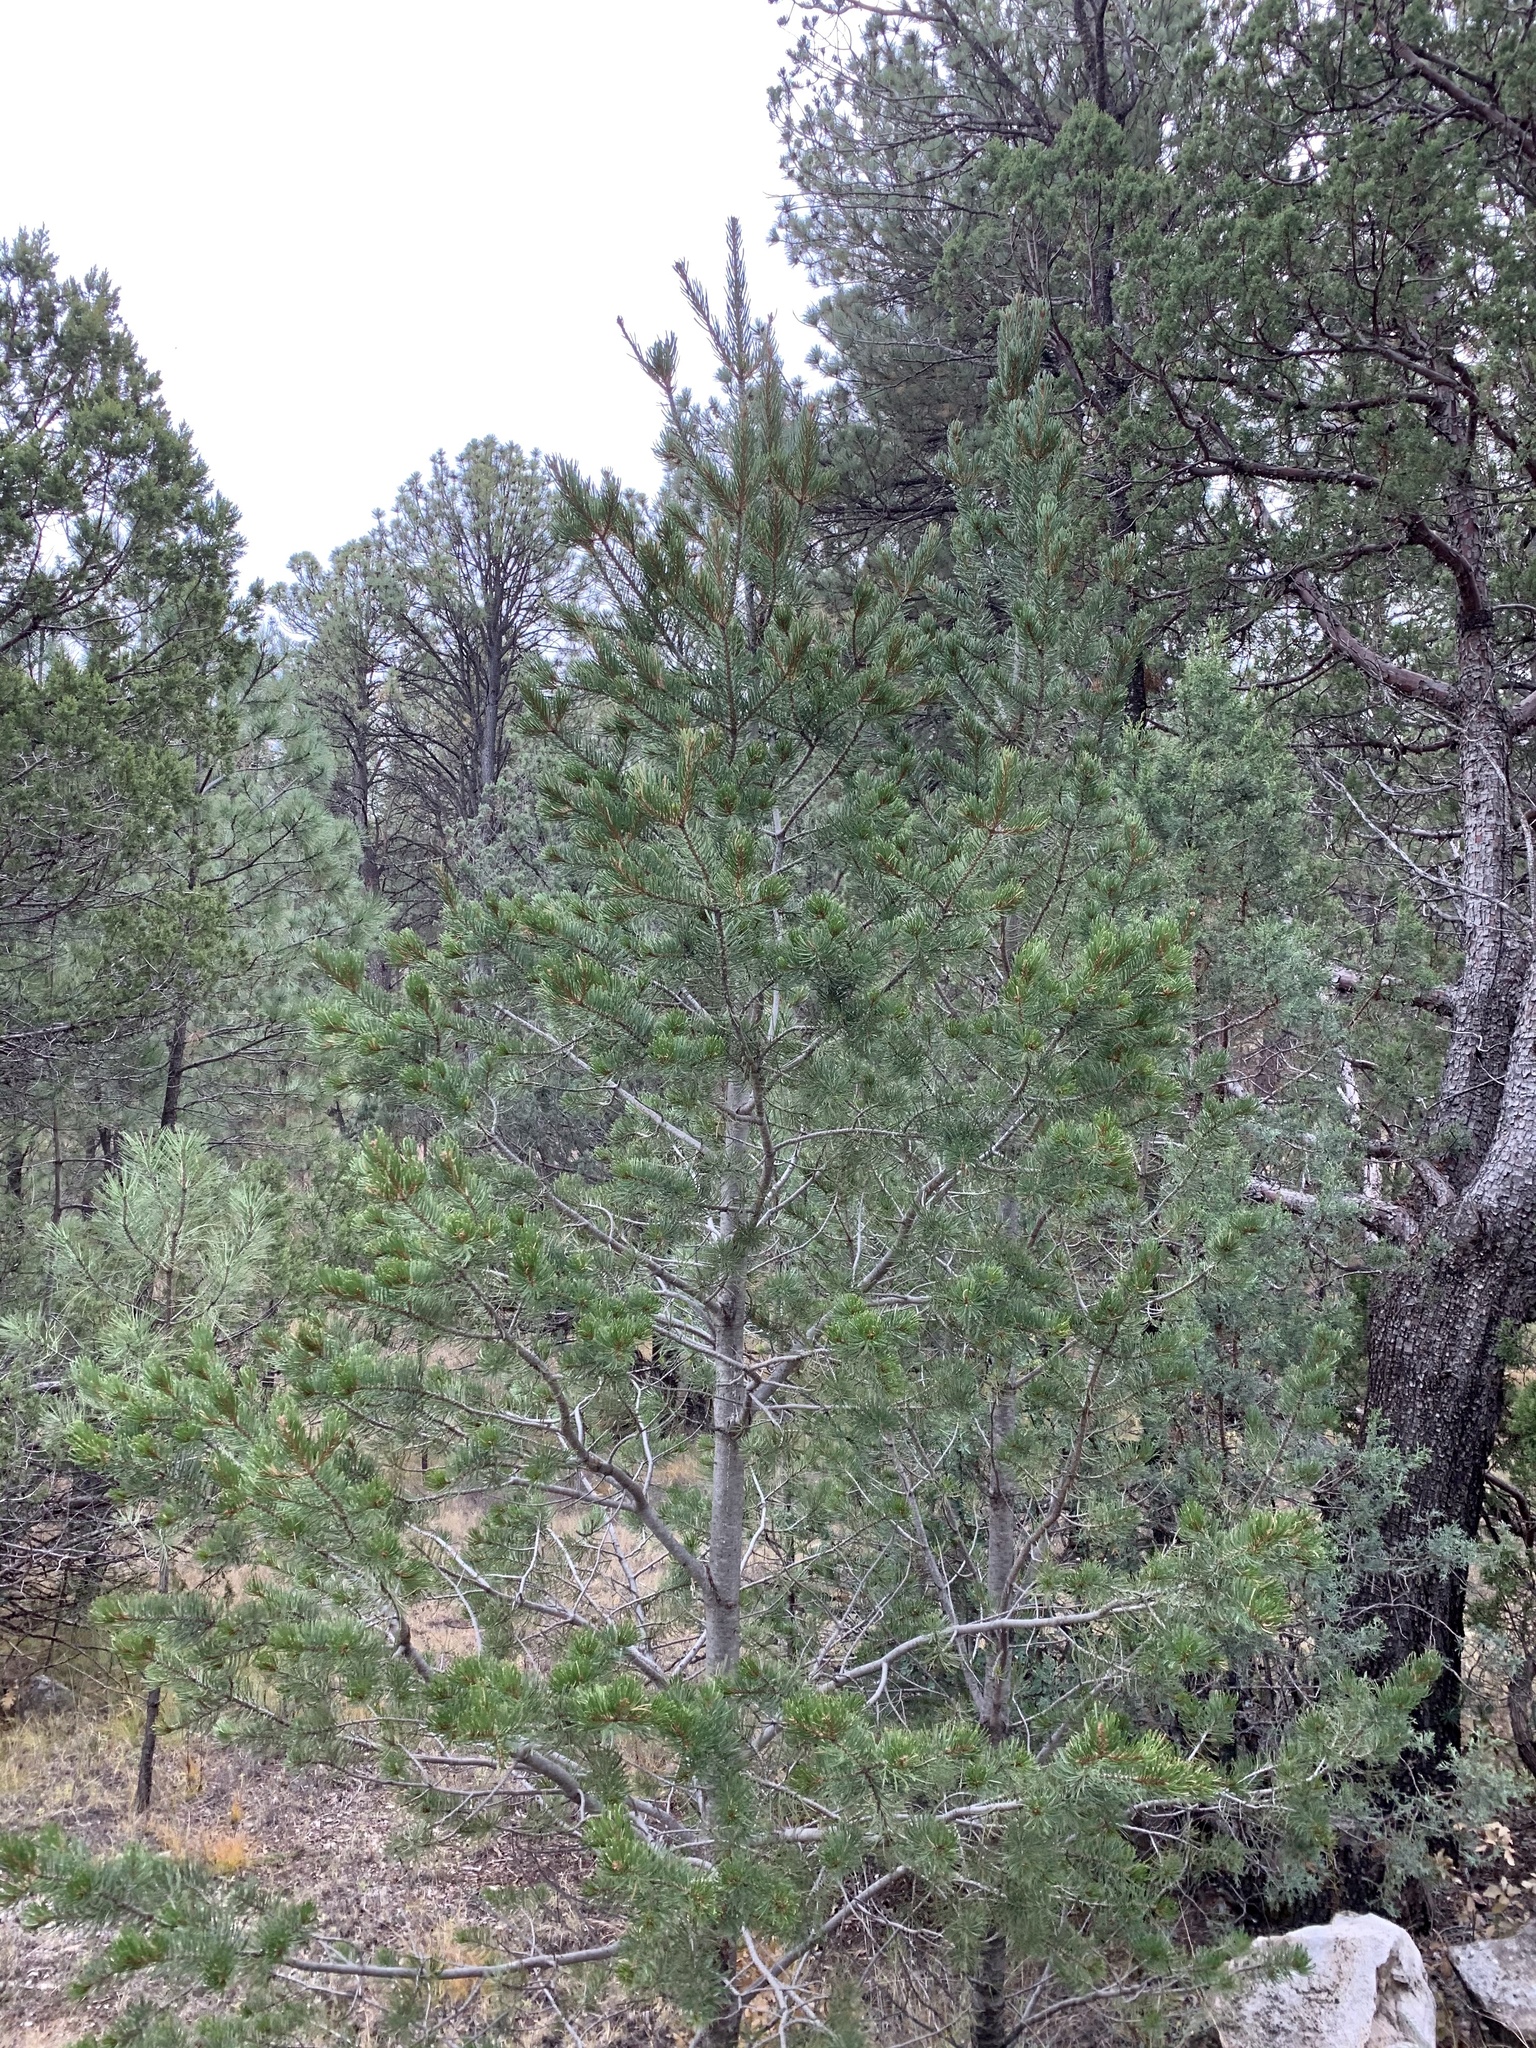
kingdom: Plantae
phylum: Tracheophyta
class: Pinopsida
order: Pinales
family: Pinaceae
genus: Pinus
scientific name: Pinus edulis
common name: Colorado pinyon
